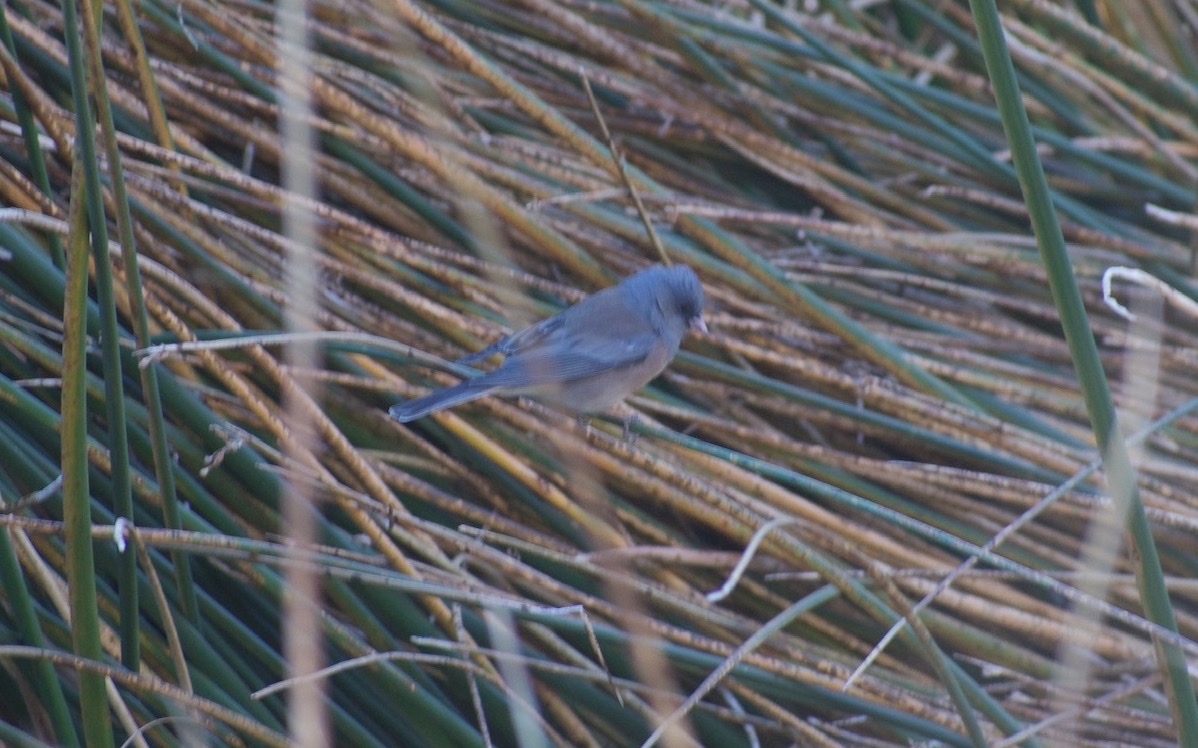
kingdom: Animalia
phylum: Chordata
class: Aves
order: Passeriformes
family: Passerellidae
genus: Junco
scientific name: Junco hyemalis
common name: Dark-eyed junco
